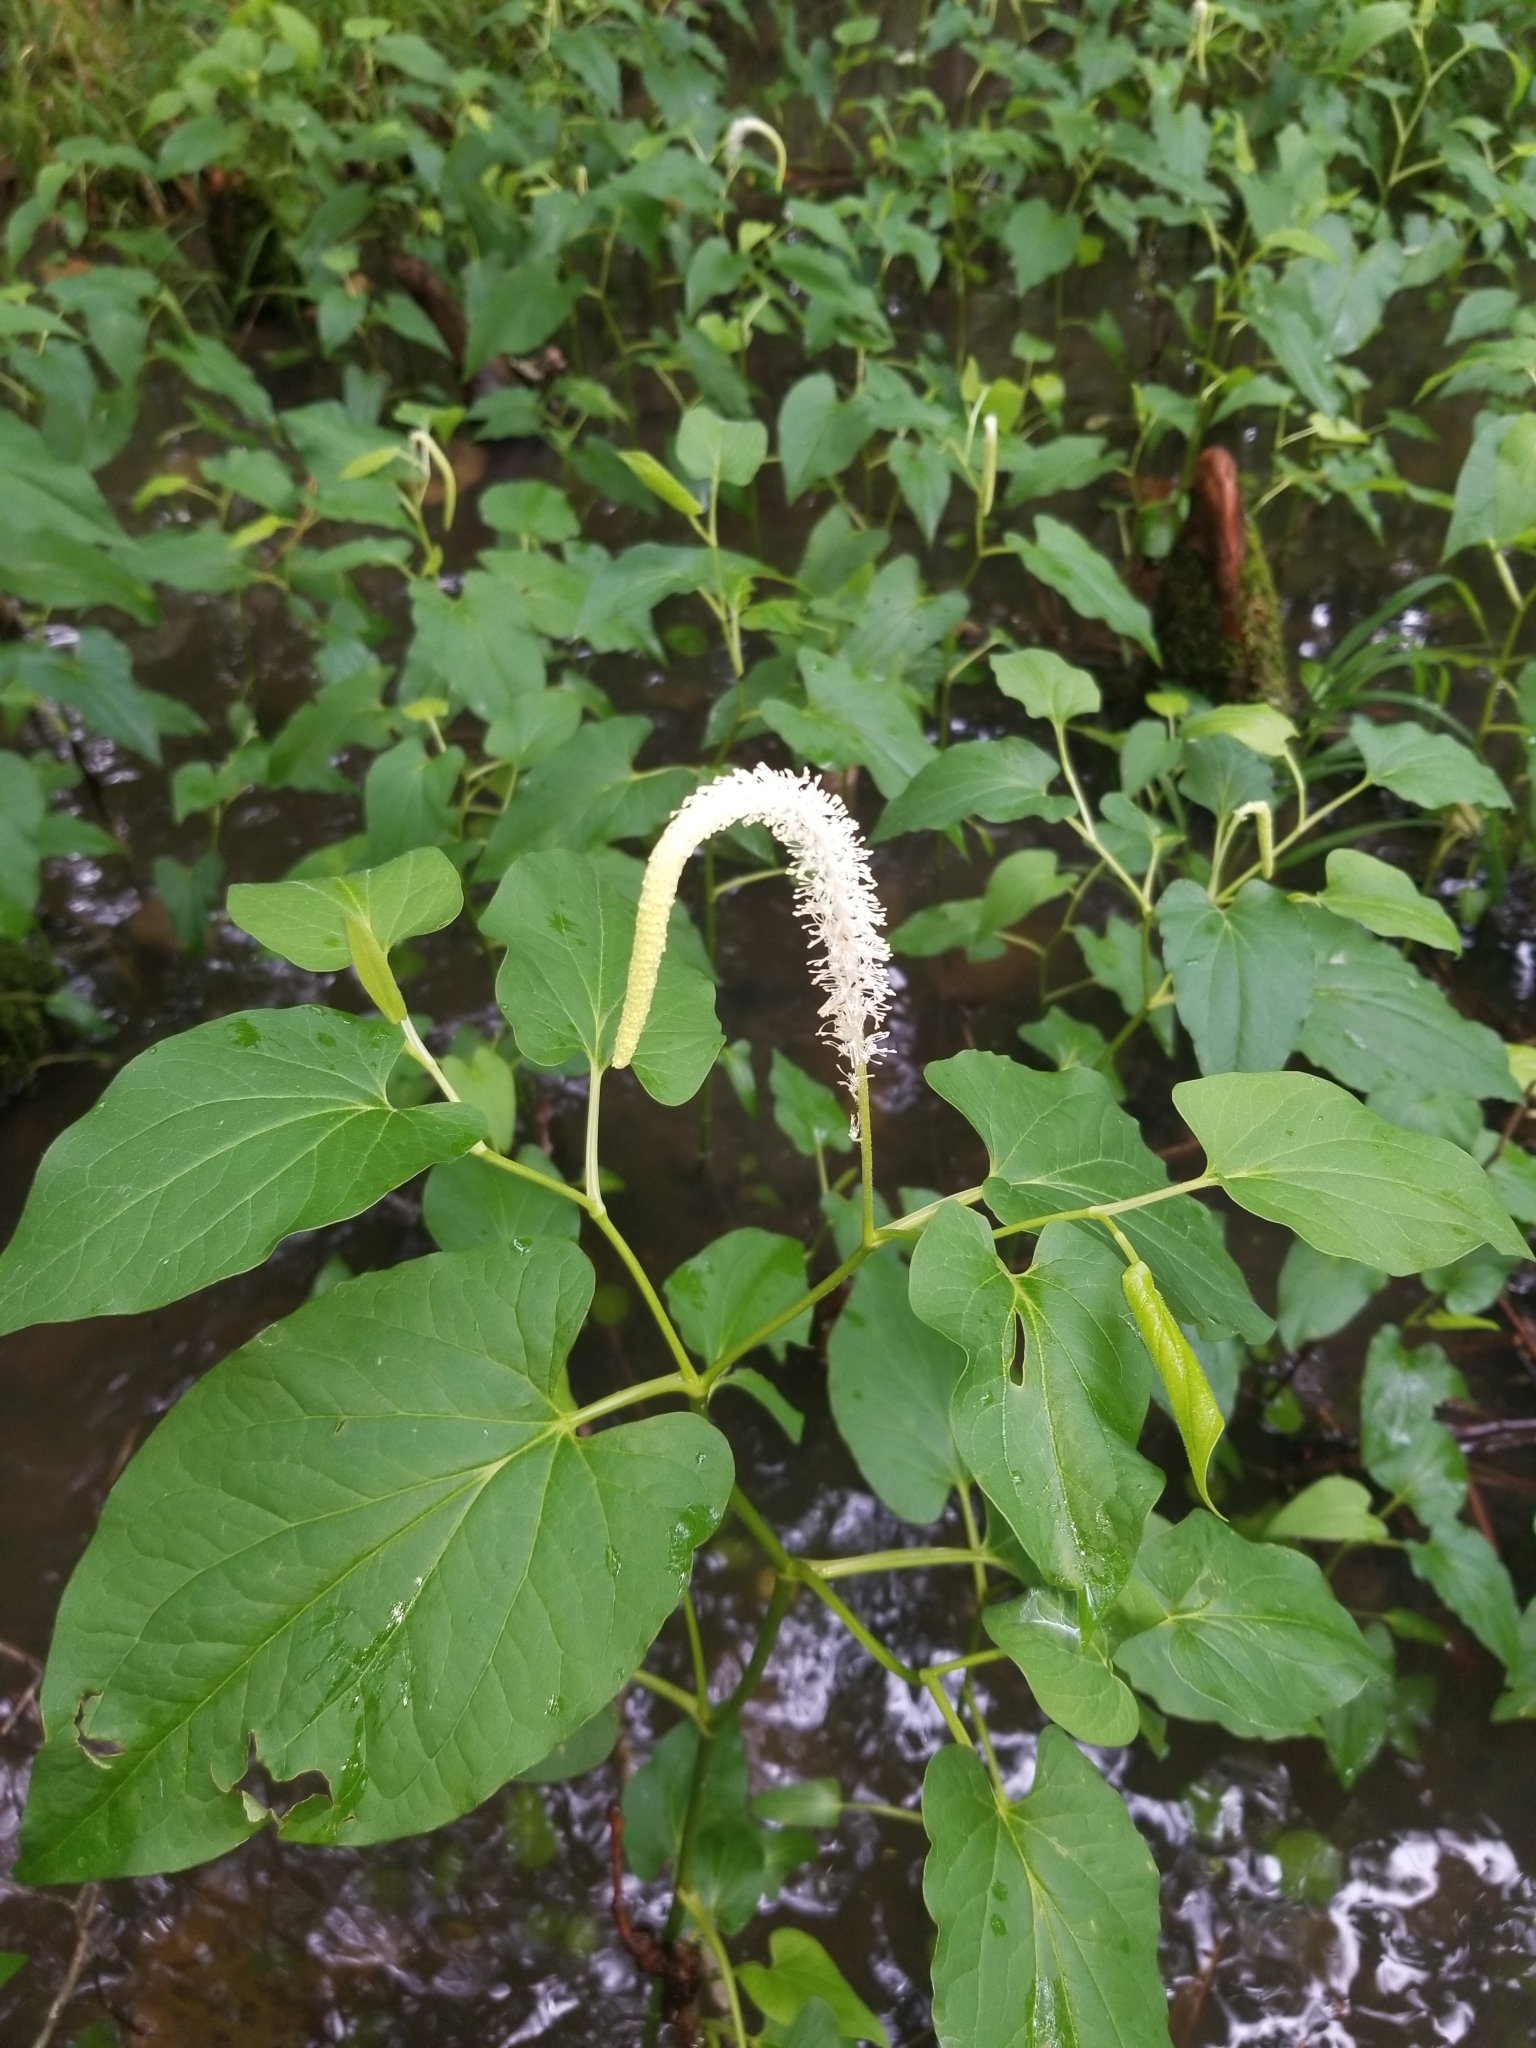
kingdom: Plantae
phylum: Tracheophyta
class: Magnoliopsida
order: Piperales
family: Saururaceae
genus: Saururus
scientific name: Saururus cernuus
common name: Lizard's-tail
